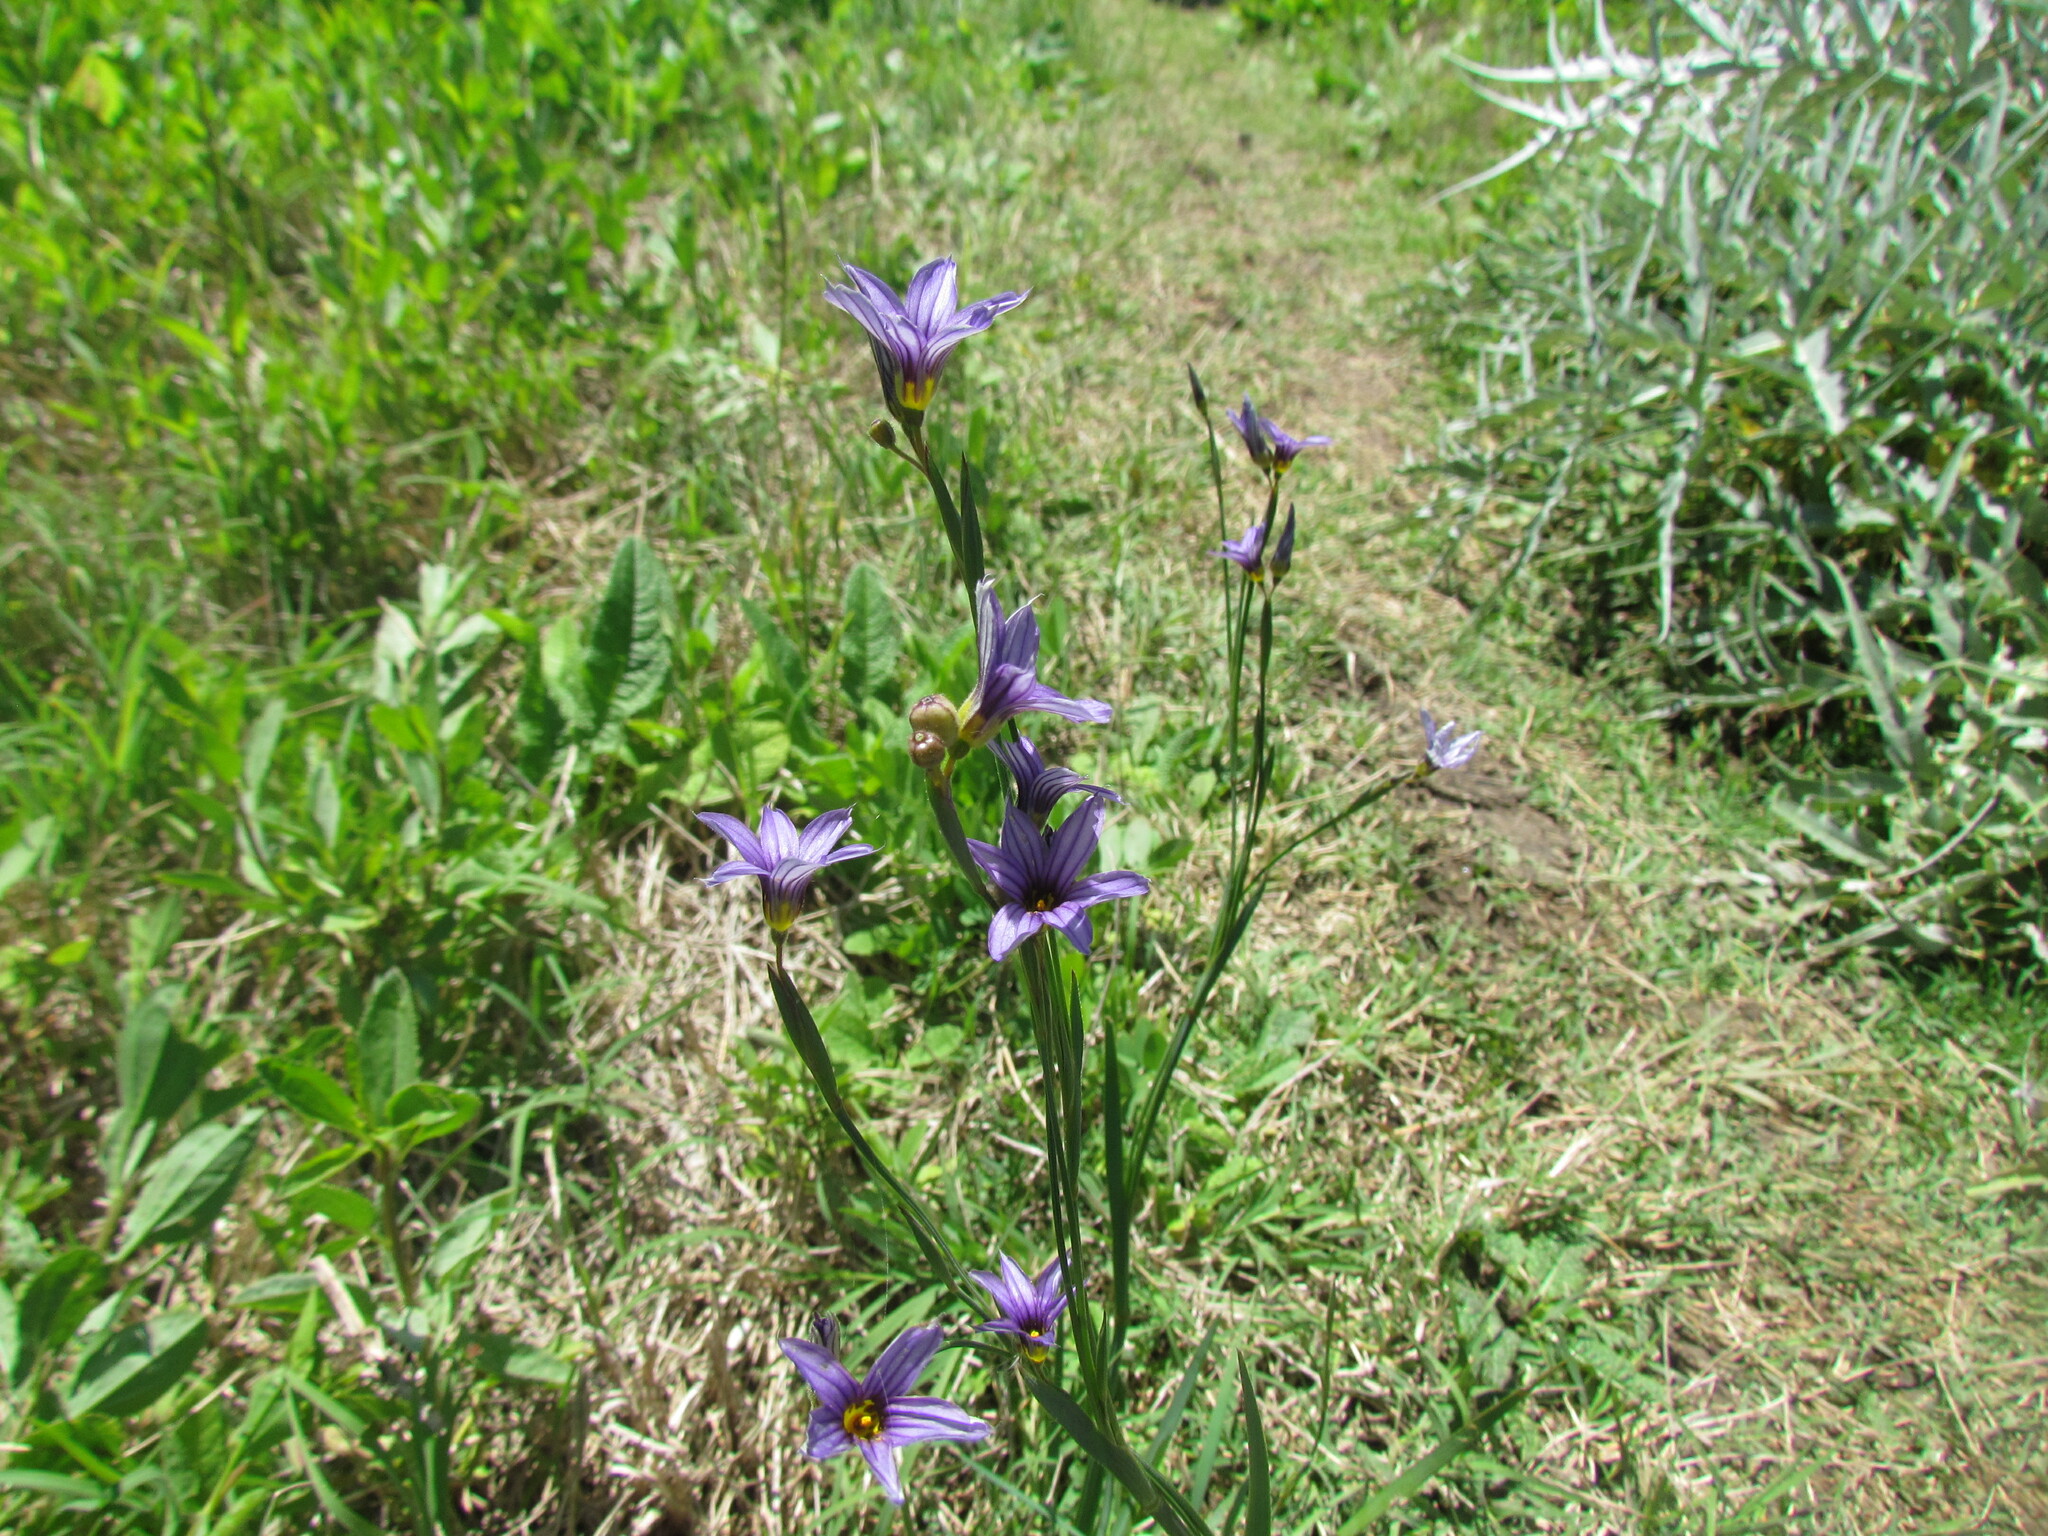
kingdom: Plantae
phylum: Tracheophyta
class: Liliopsida
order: Asparagales
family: Iridaceae
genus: Sisyrinchium
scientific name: Sisyrinchium platense
